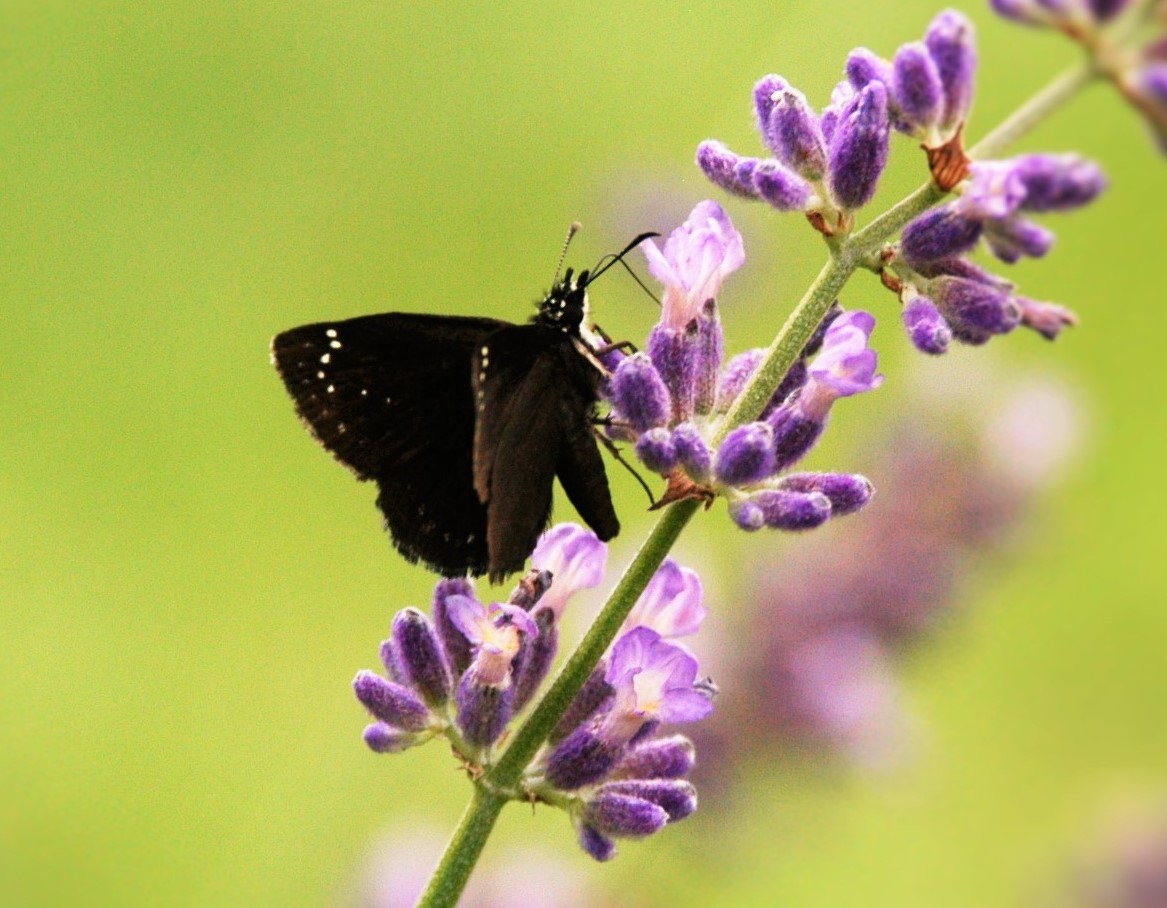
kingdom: Animalia
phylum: Arthropoda
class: Insecta
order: Lepidoptera
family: Hesperiidae
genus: Pholisora
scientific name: Pholisora catullus
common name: Common sootywing
